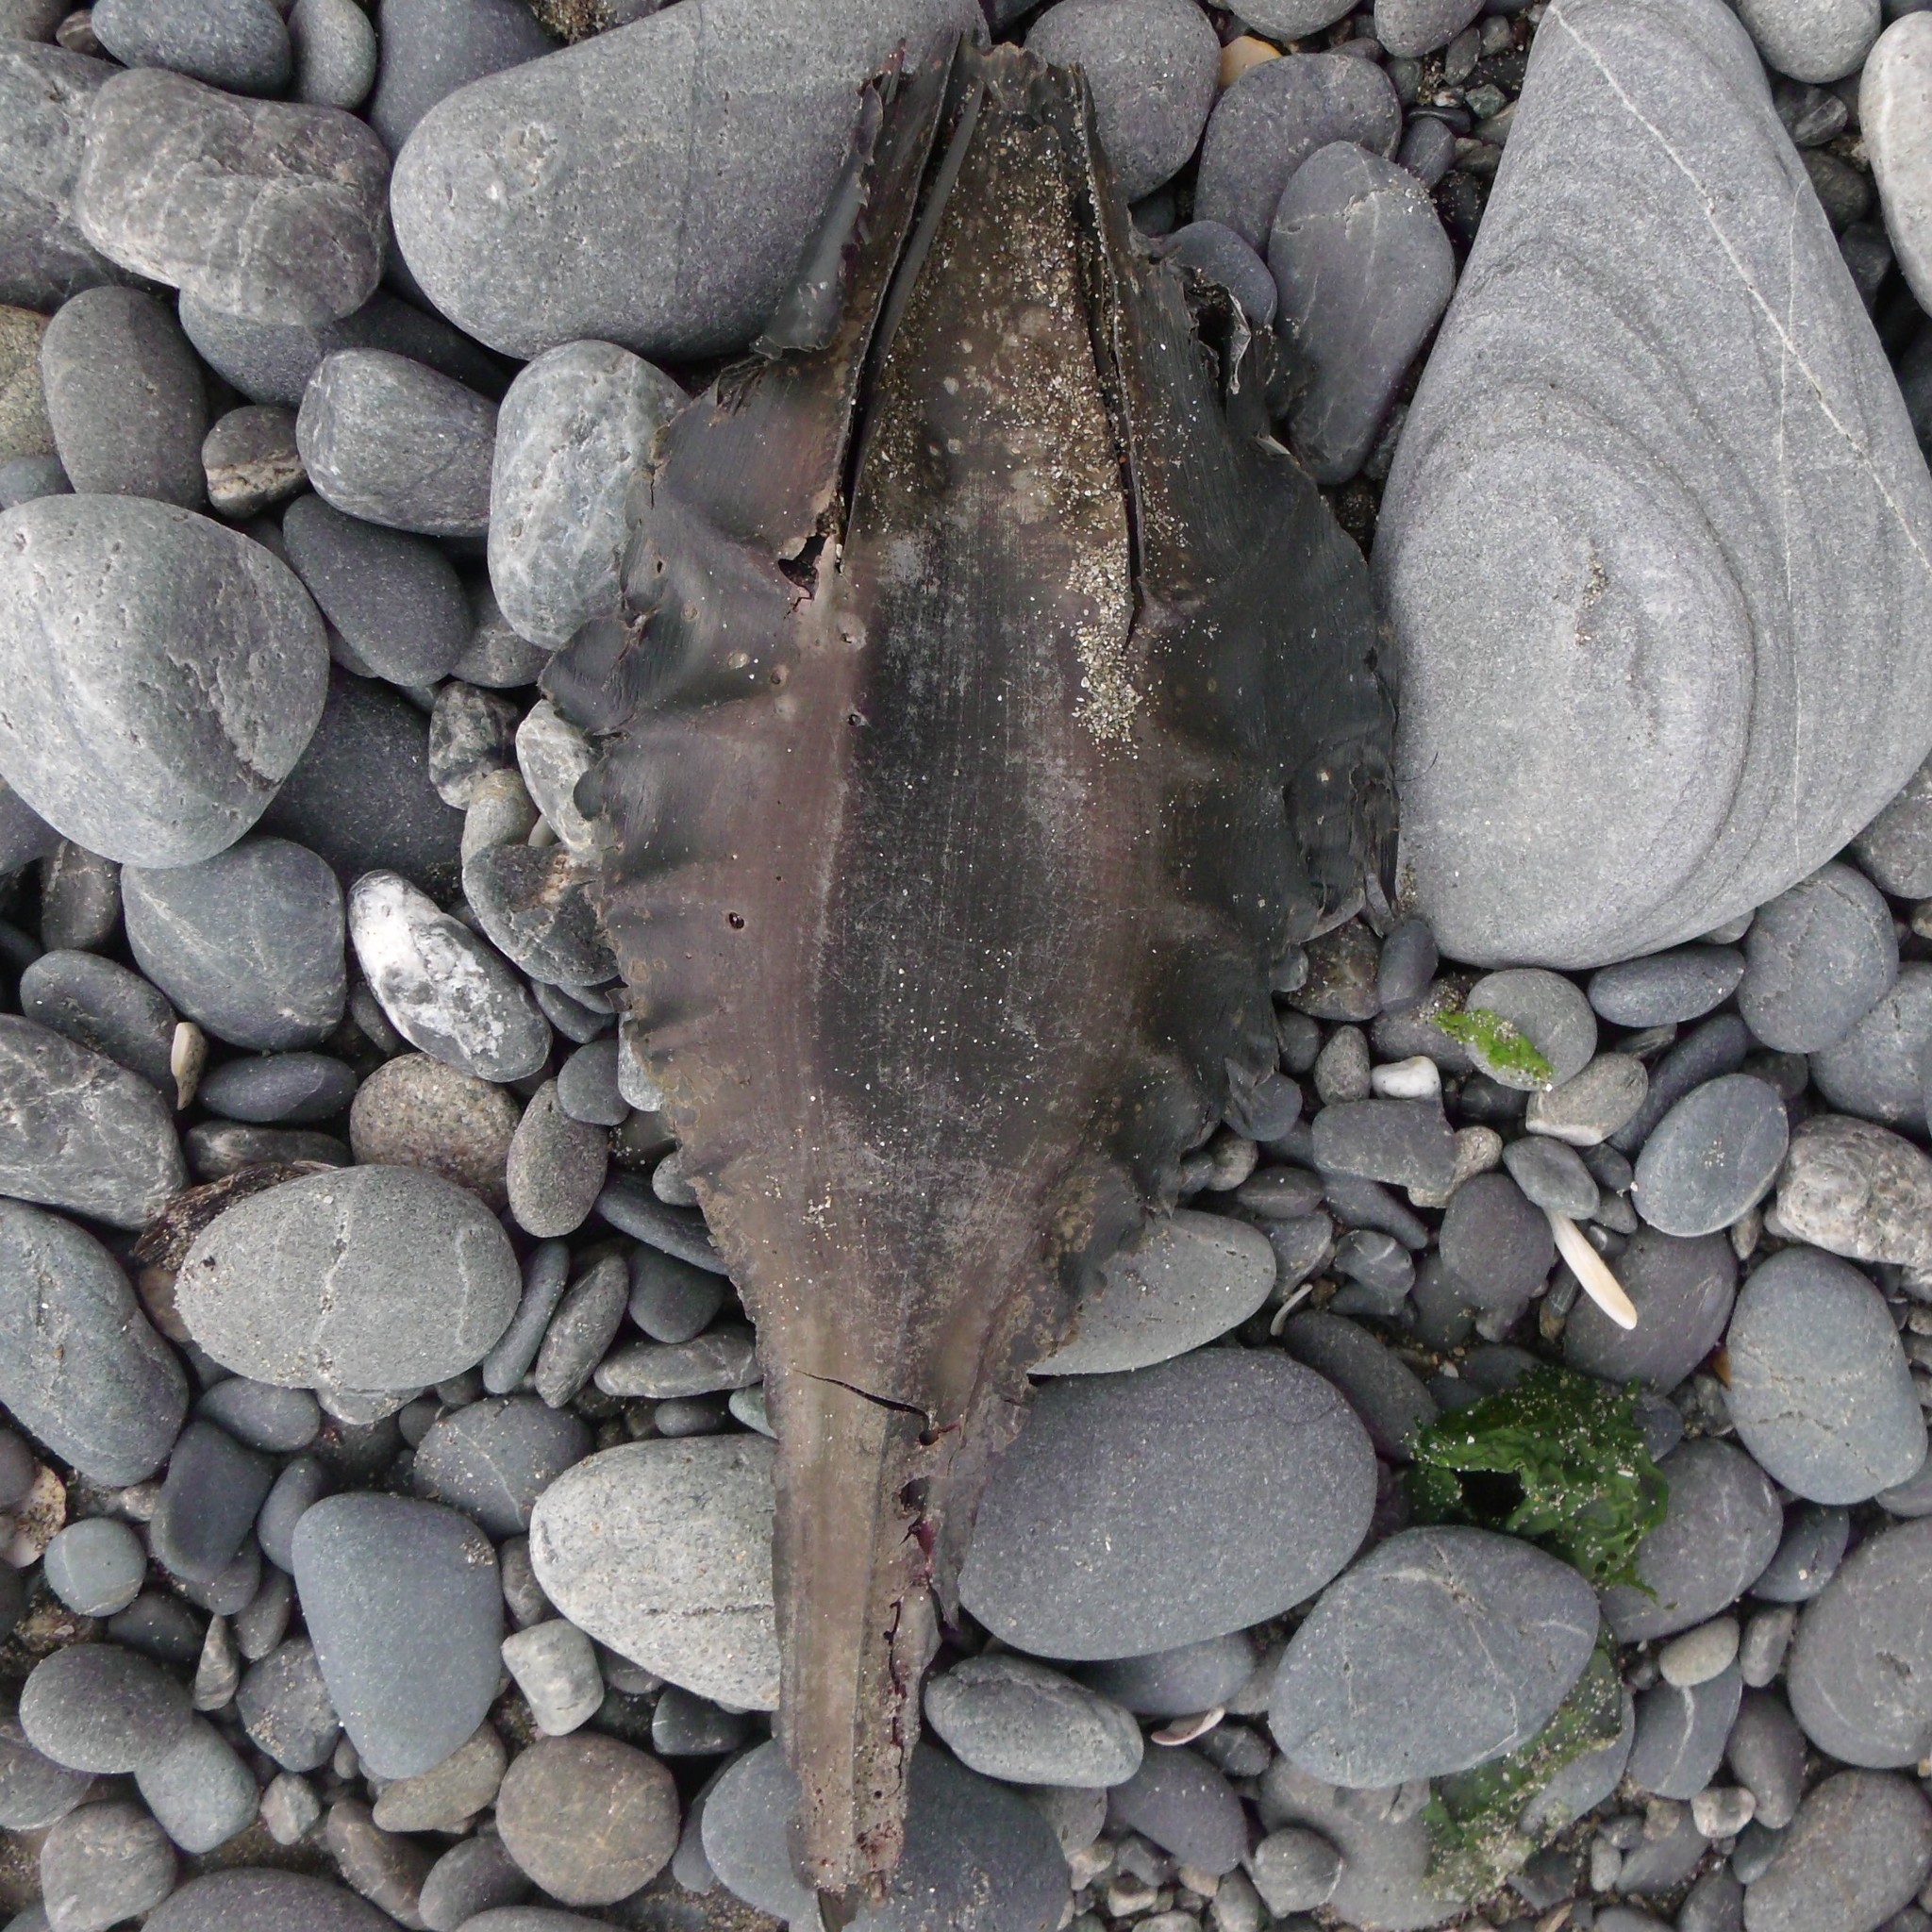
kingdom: Animalia
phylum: Chordata
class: Holocephali
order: Chimaeriformes
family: Callorhinchidae
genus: Callorhinchus
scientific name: Callorhinchus milii
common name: Elephant fish
